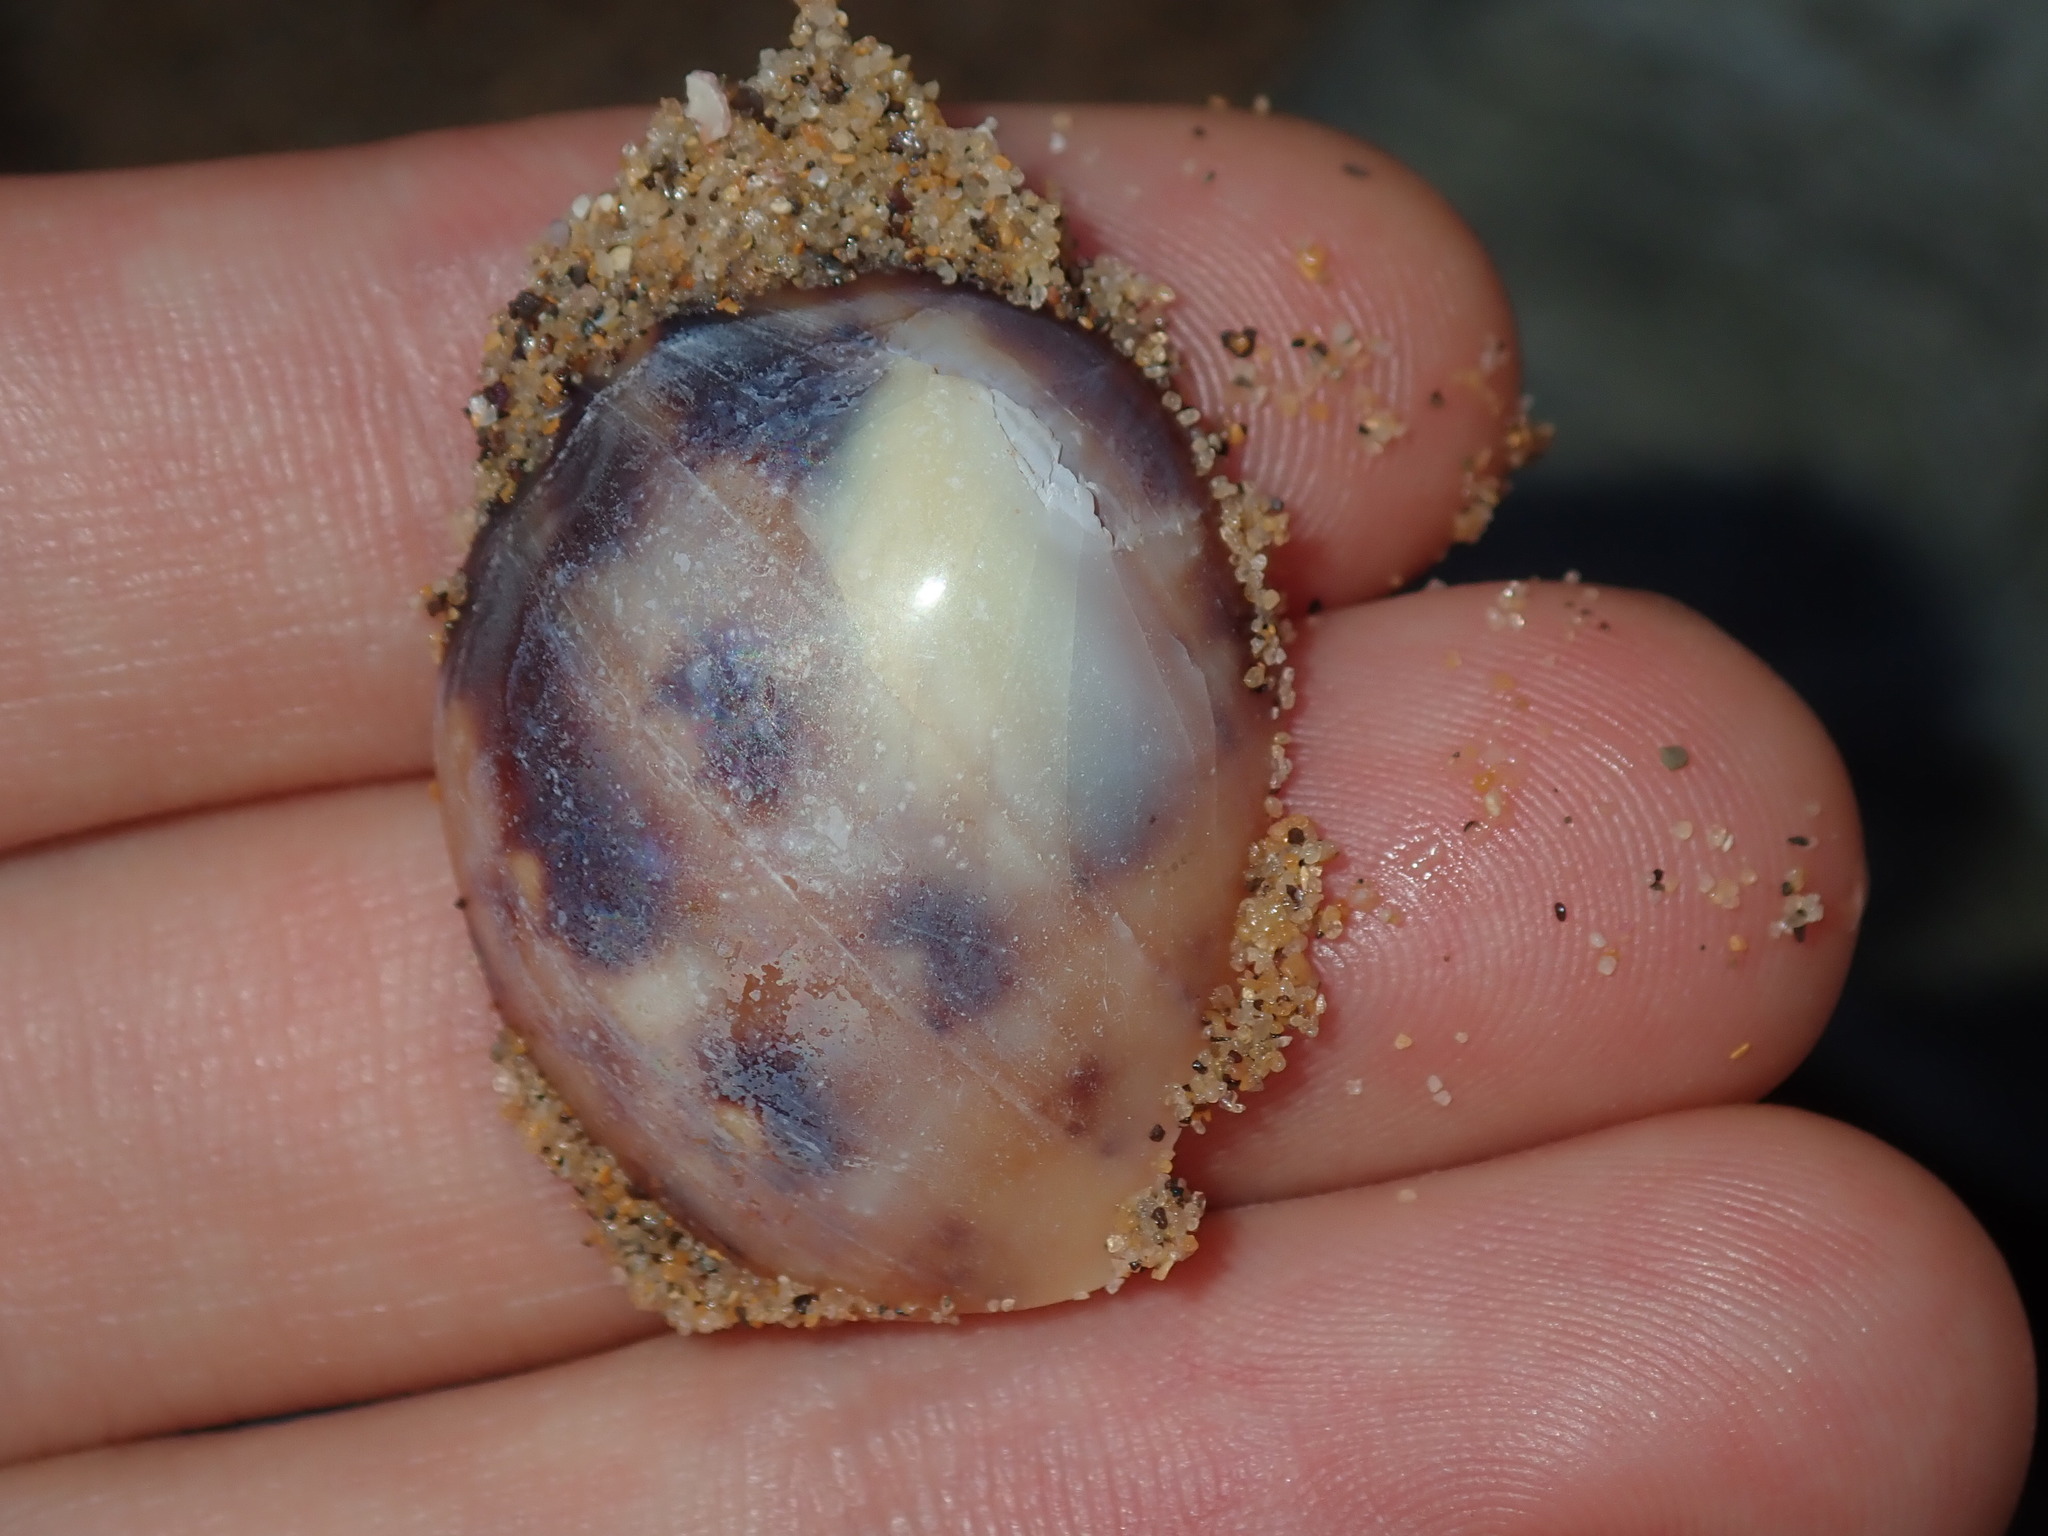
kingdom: Animalia
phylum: Mollusca
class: Gastropoda
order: Littorinimorpha
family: Cassidae
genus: Semicassis
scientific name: Semicassis labiata
